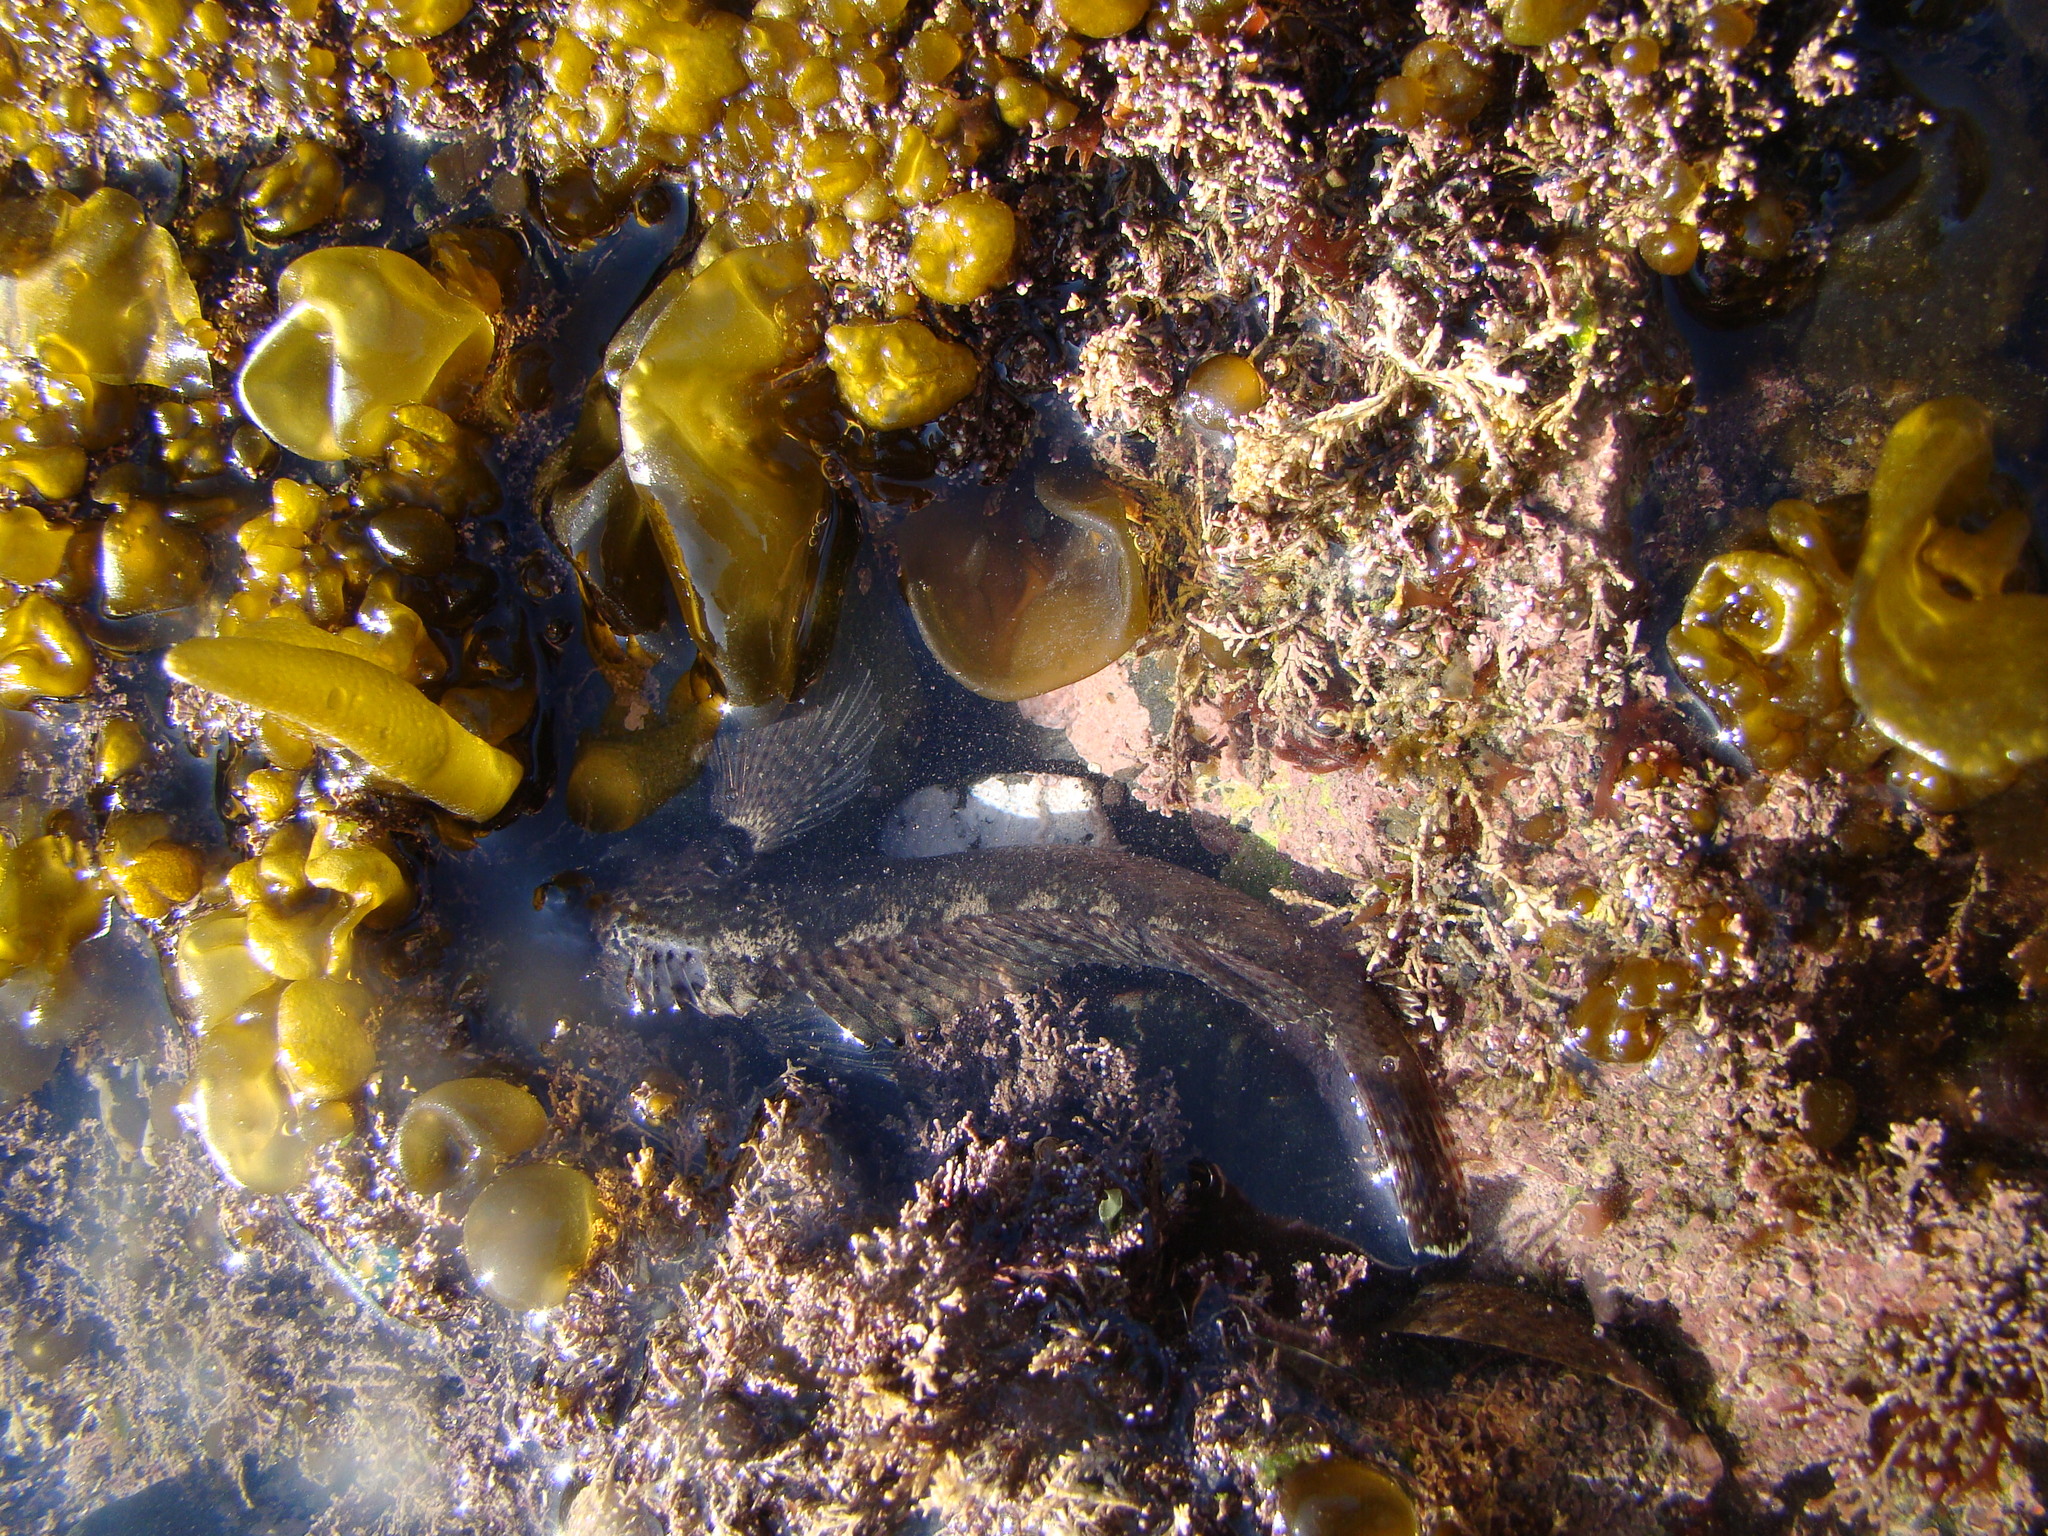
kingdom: Animalia
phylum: Chordata
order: Perciformes
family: Tripterygiidae
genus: Forsterygion
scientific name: Forsterygion capito
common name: Spotted robust triplefin
